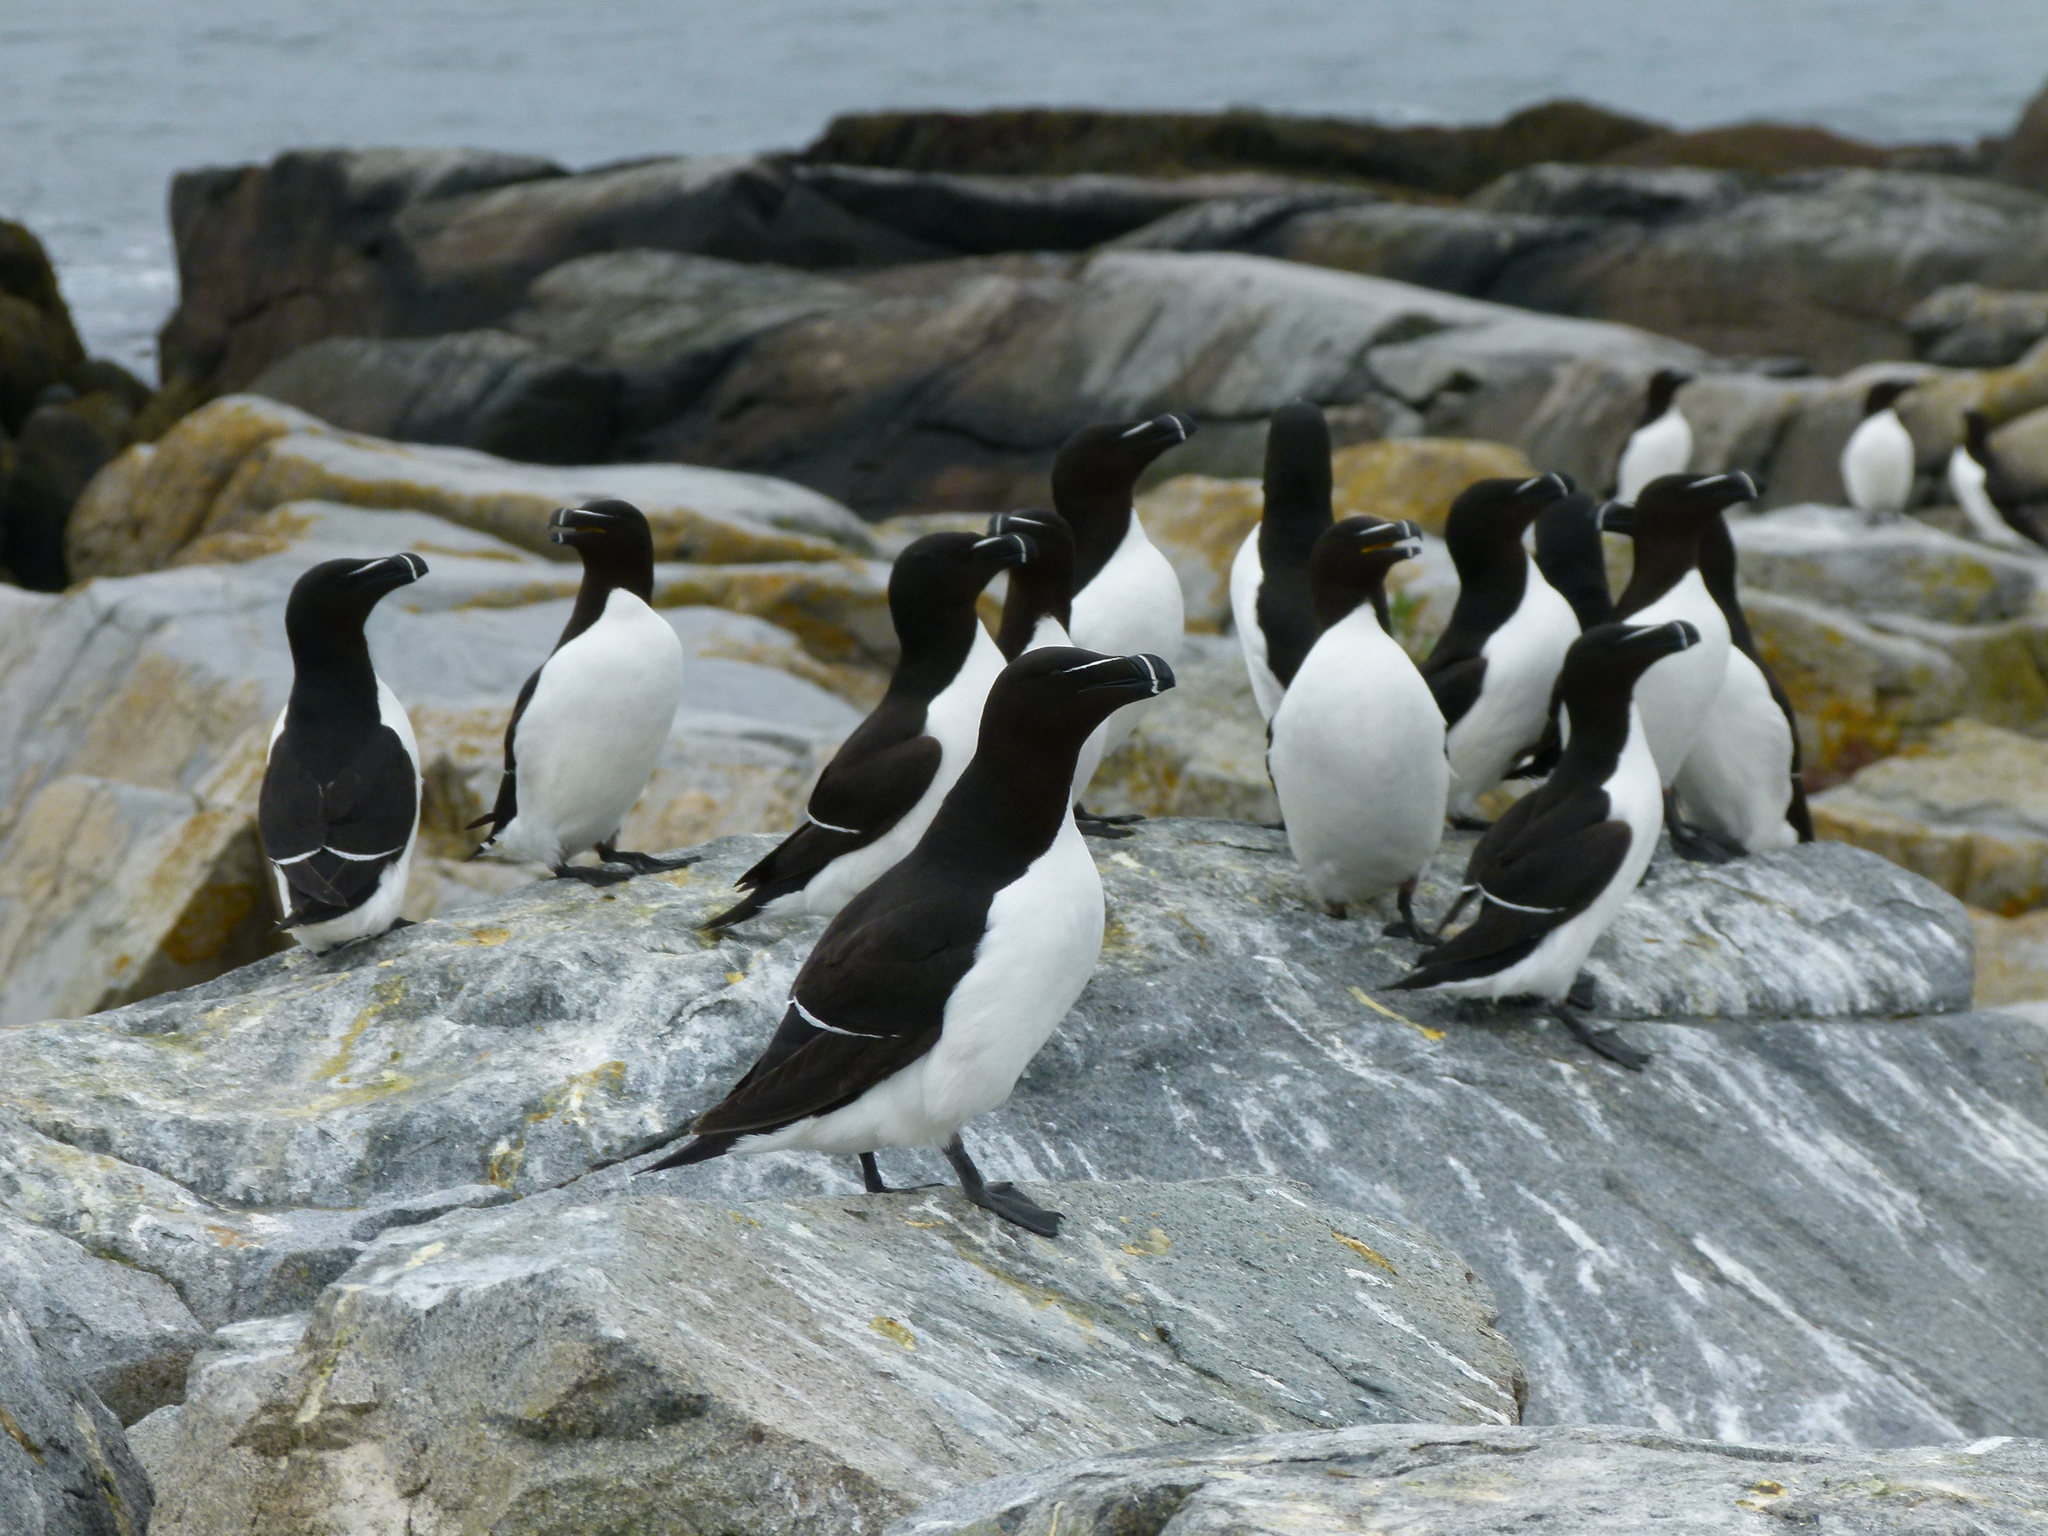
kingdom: Animalia
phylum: Chordata
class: Aves
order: Charadriiformes
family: Alcidae
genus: Alca
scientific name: Alca torda
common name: Razorbill
